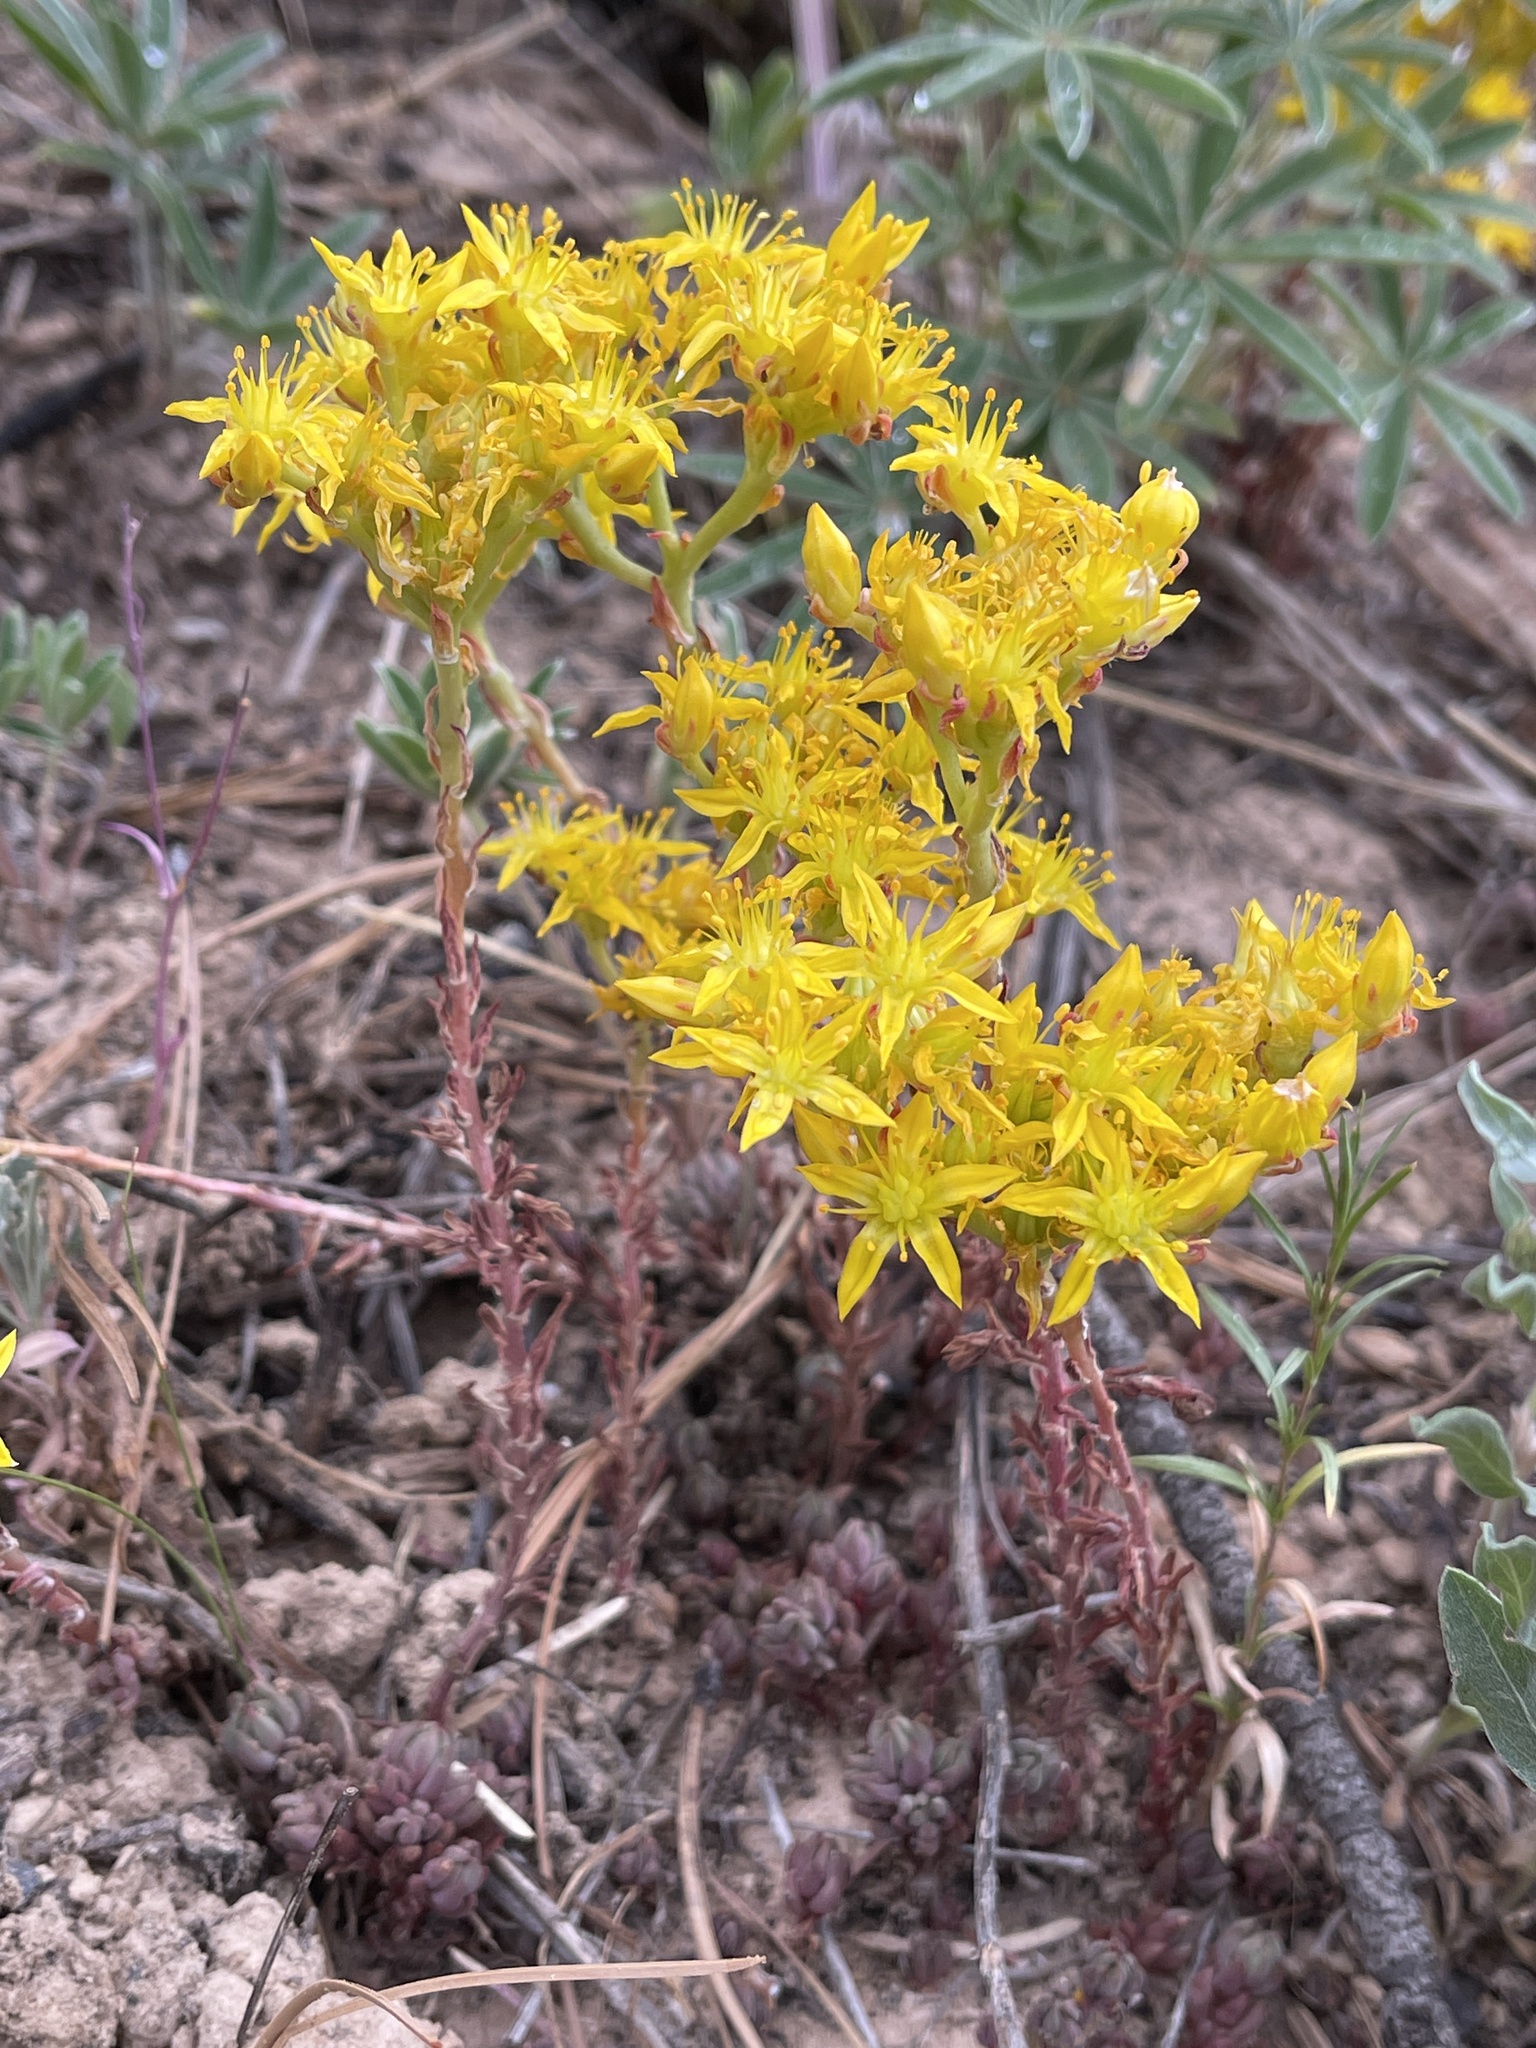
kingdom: Plantae
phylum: Tracheophyta
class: Magnoliopsida
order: Saxifragales
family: Crassulaceae
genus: Sedum
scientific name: Sedum lanceolatum
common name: Common stonecrop
